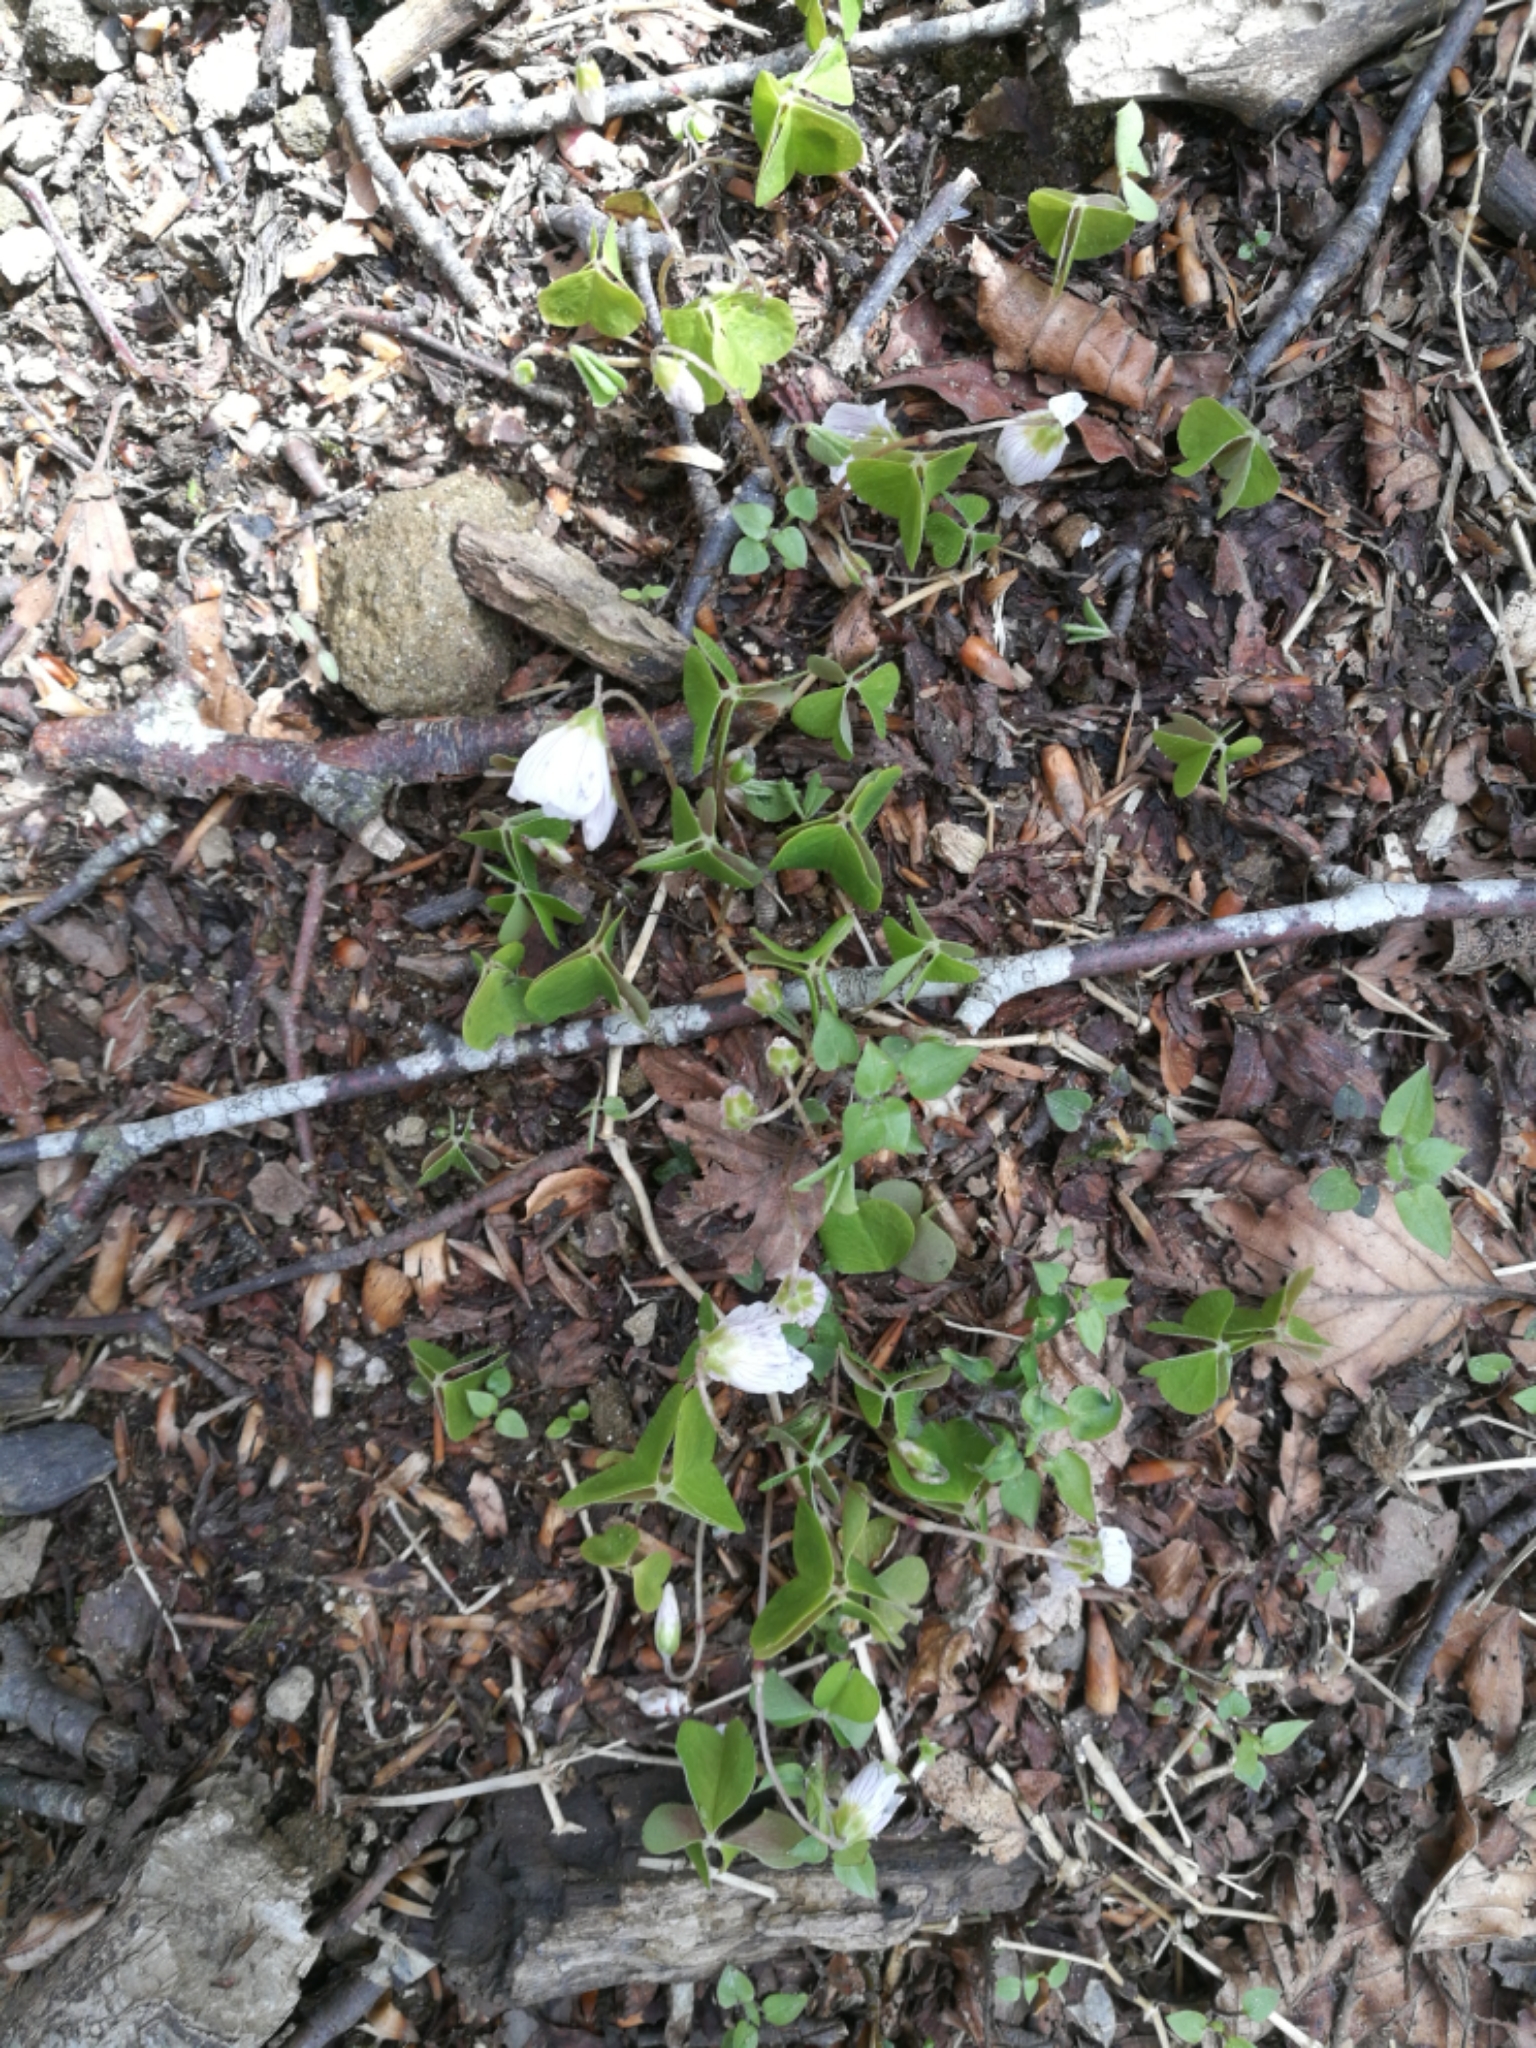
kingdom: Plantae
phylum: Tracheophyta
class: Magnoliopsida
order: Oxalidales
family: Oxalidaceae
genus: Oxalis
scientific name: Oxalis acetosella
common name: Wood-sorrel
